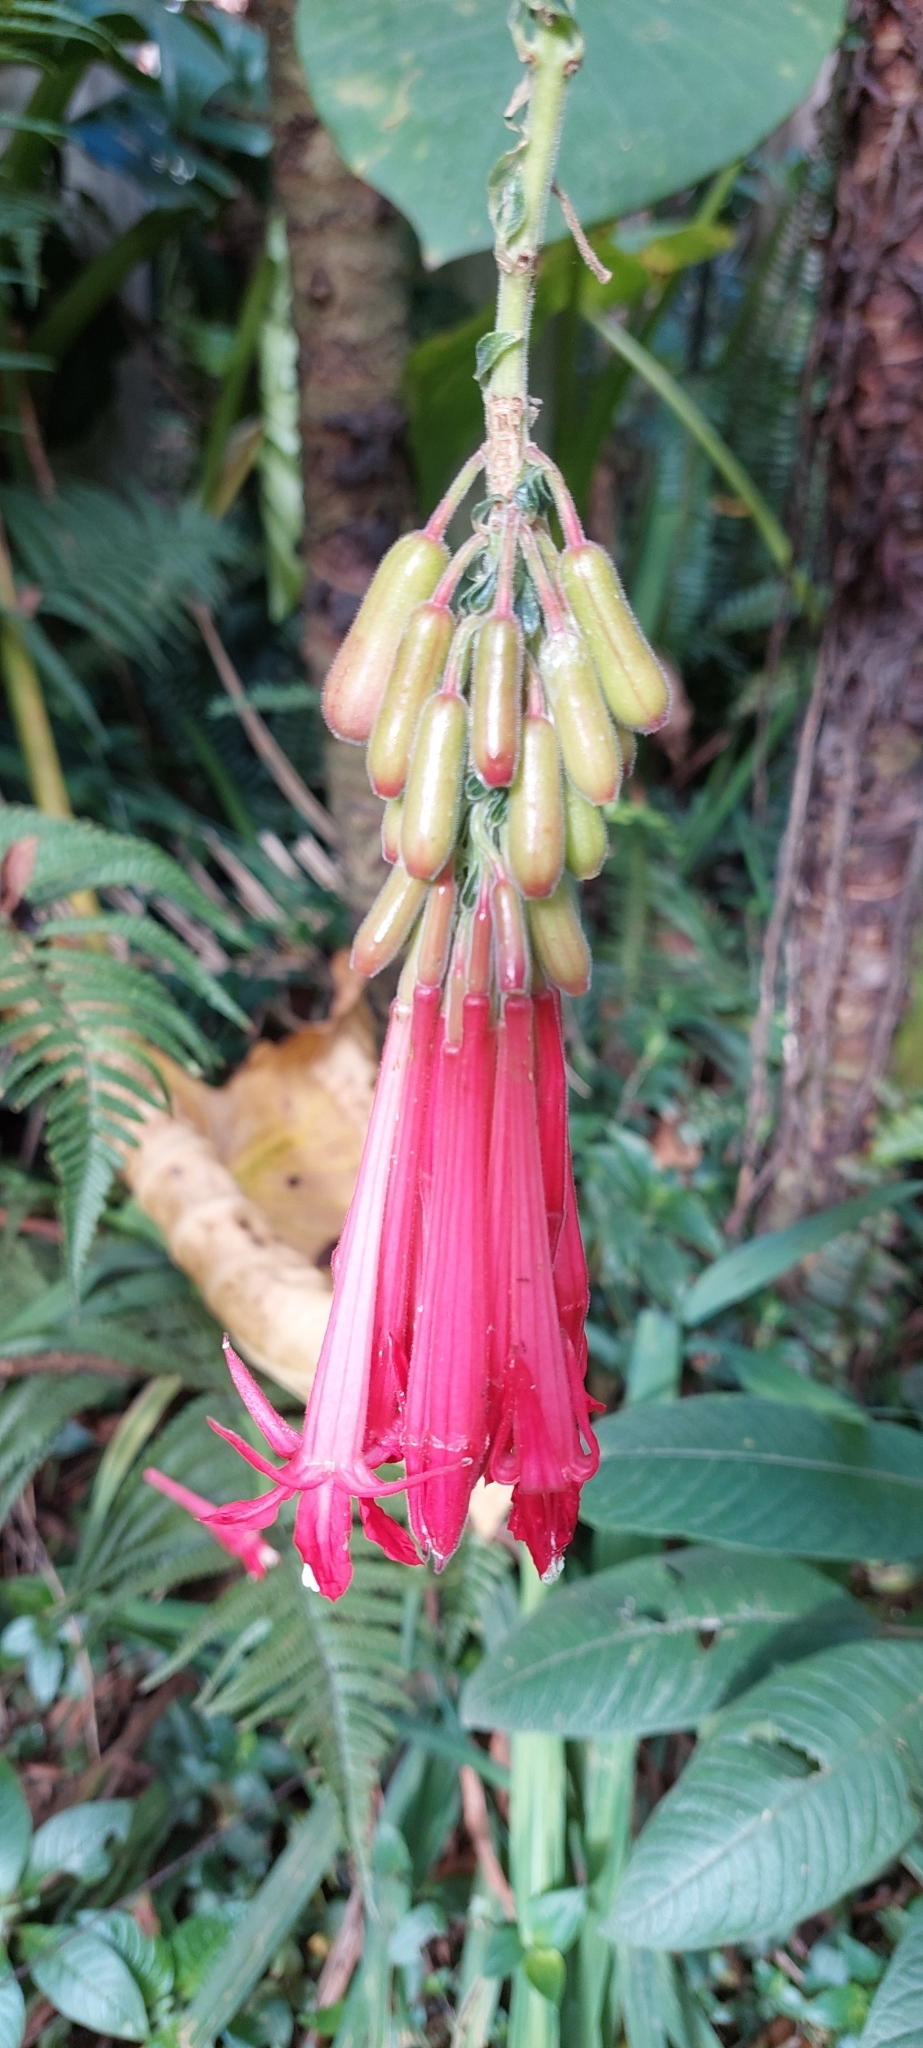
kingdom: Plantae
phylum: Tracheophyta
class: Magnoliopsida
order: Myrtales
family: Onagraceae
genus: Fuchsia
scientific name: Fuchsia boliviana
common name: Bolivian fuchsia
